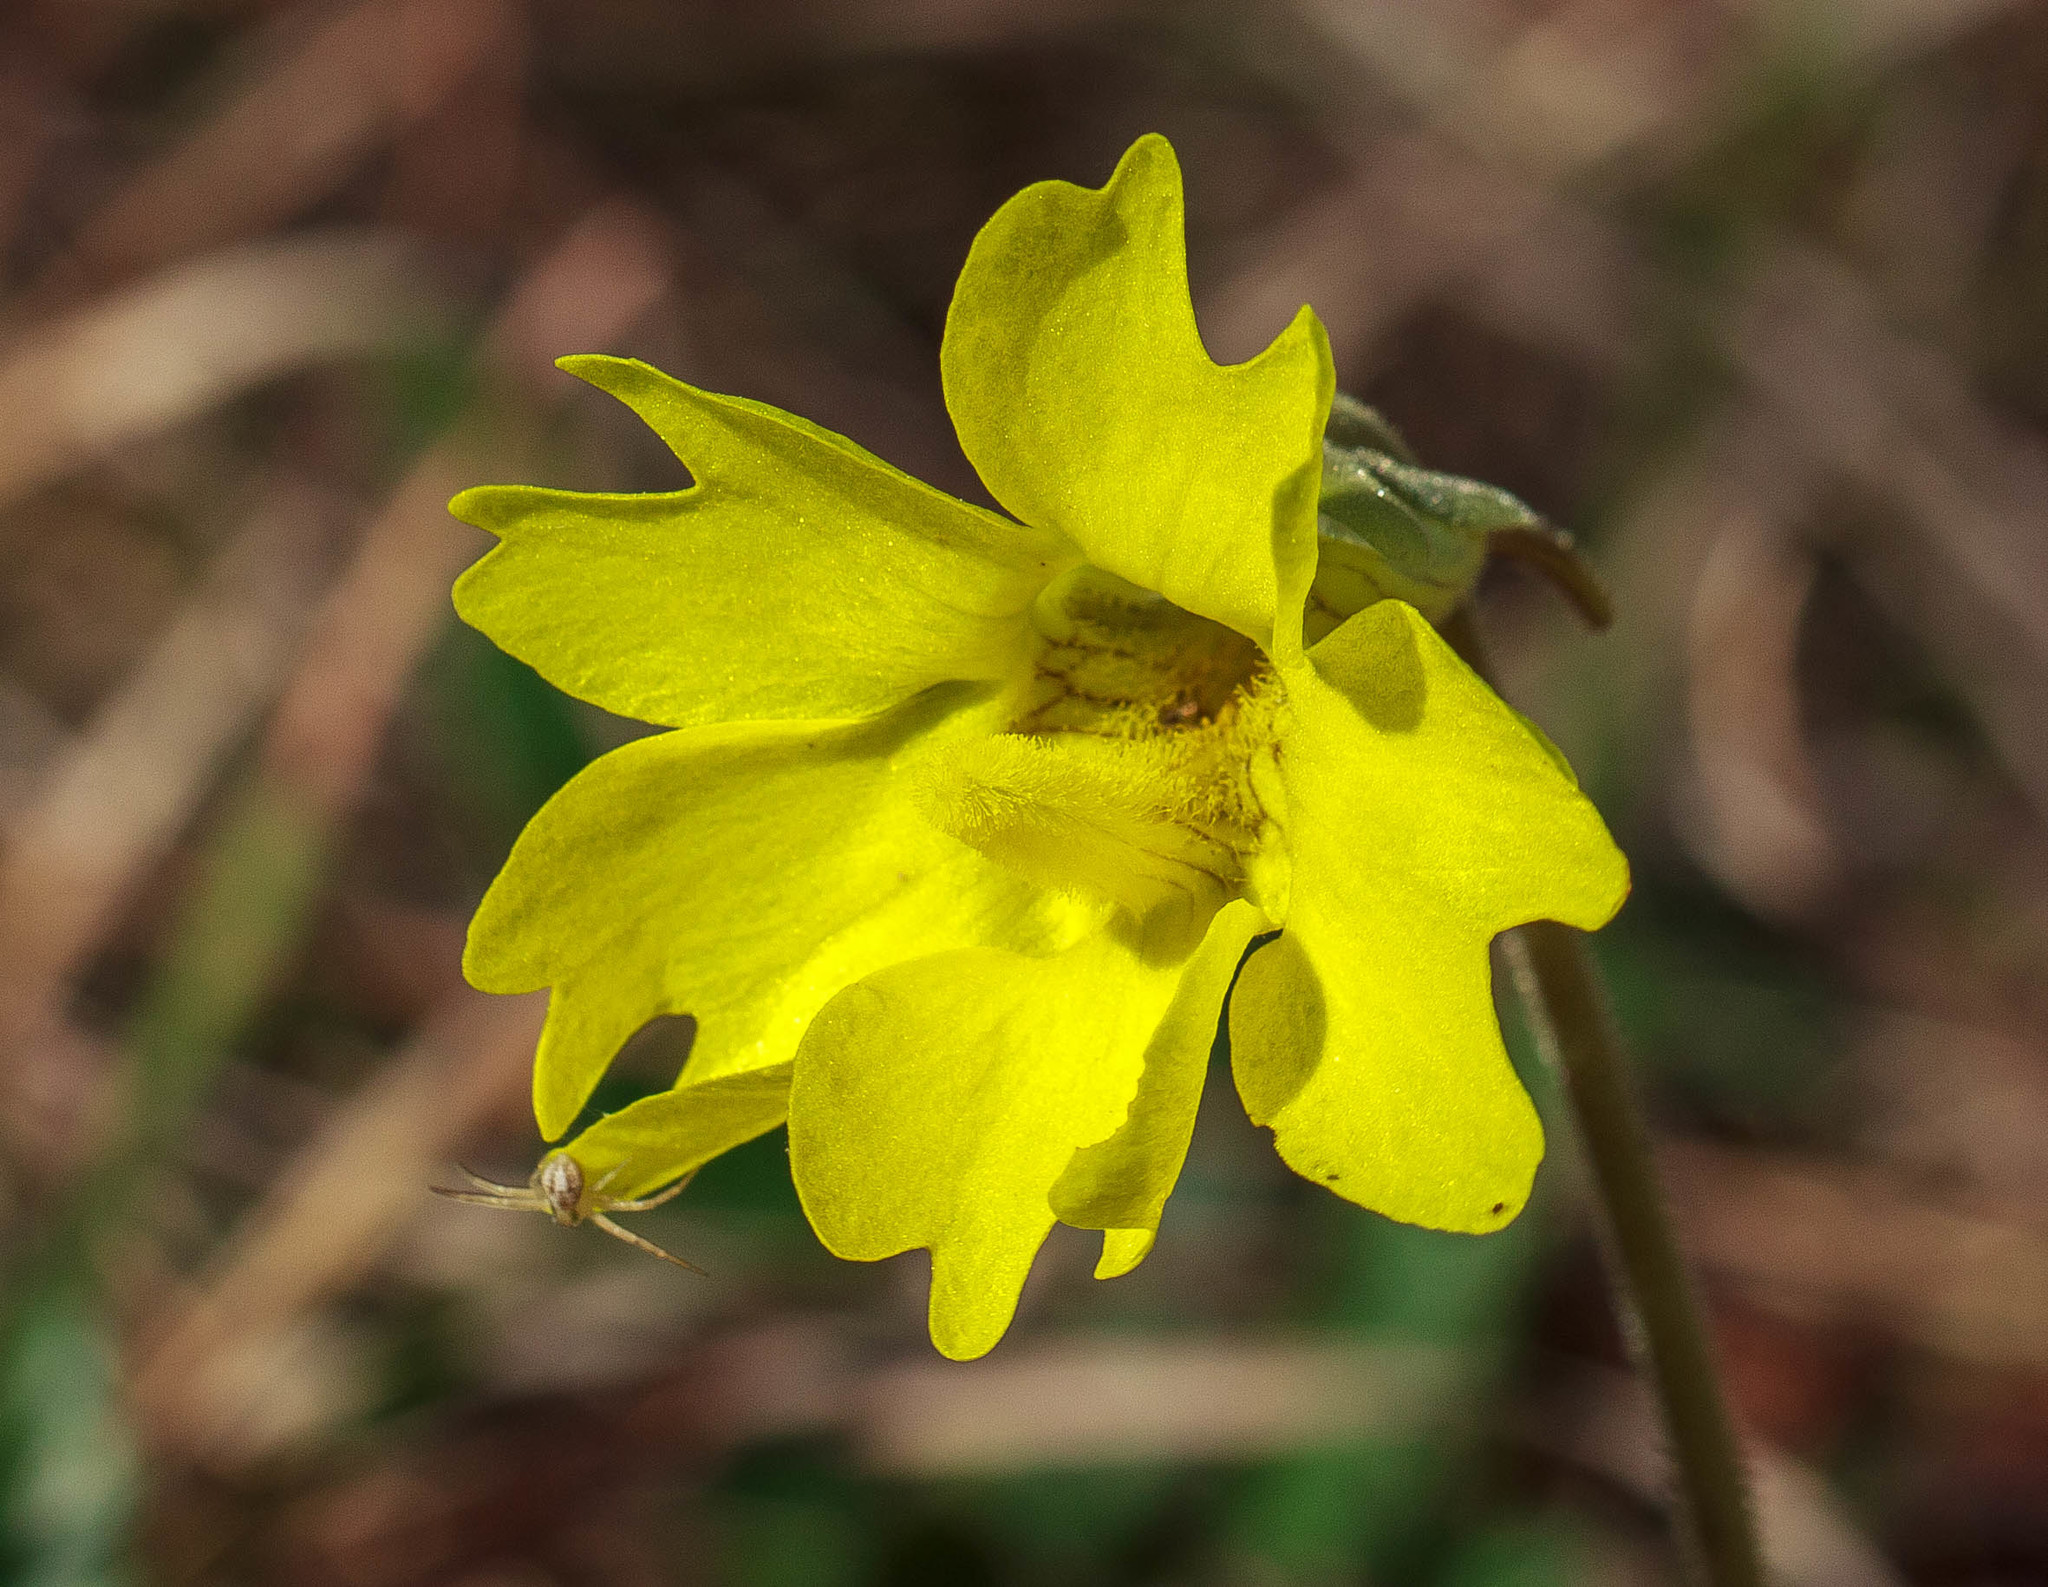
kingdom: Plantae
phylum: Tracheophyta
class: Magnoliopsida
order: Lamiales
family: Lentibulariaceae
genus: Pinguicula
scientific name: Pinguicula lutea
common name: Yellow butterwort
